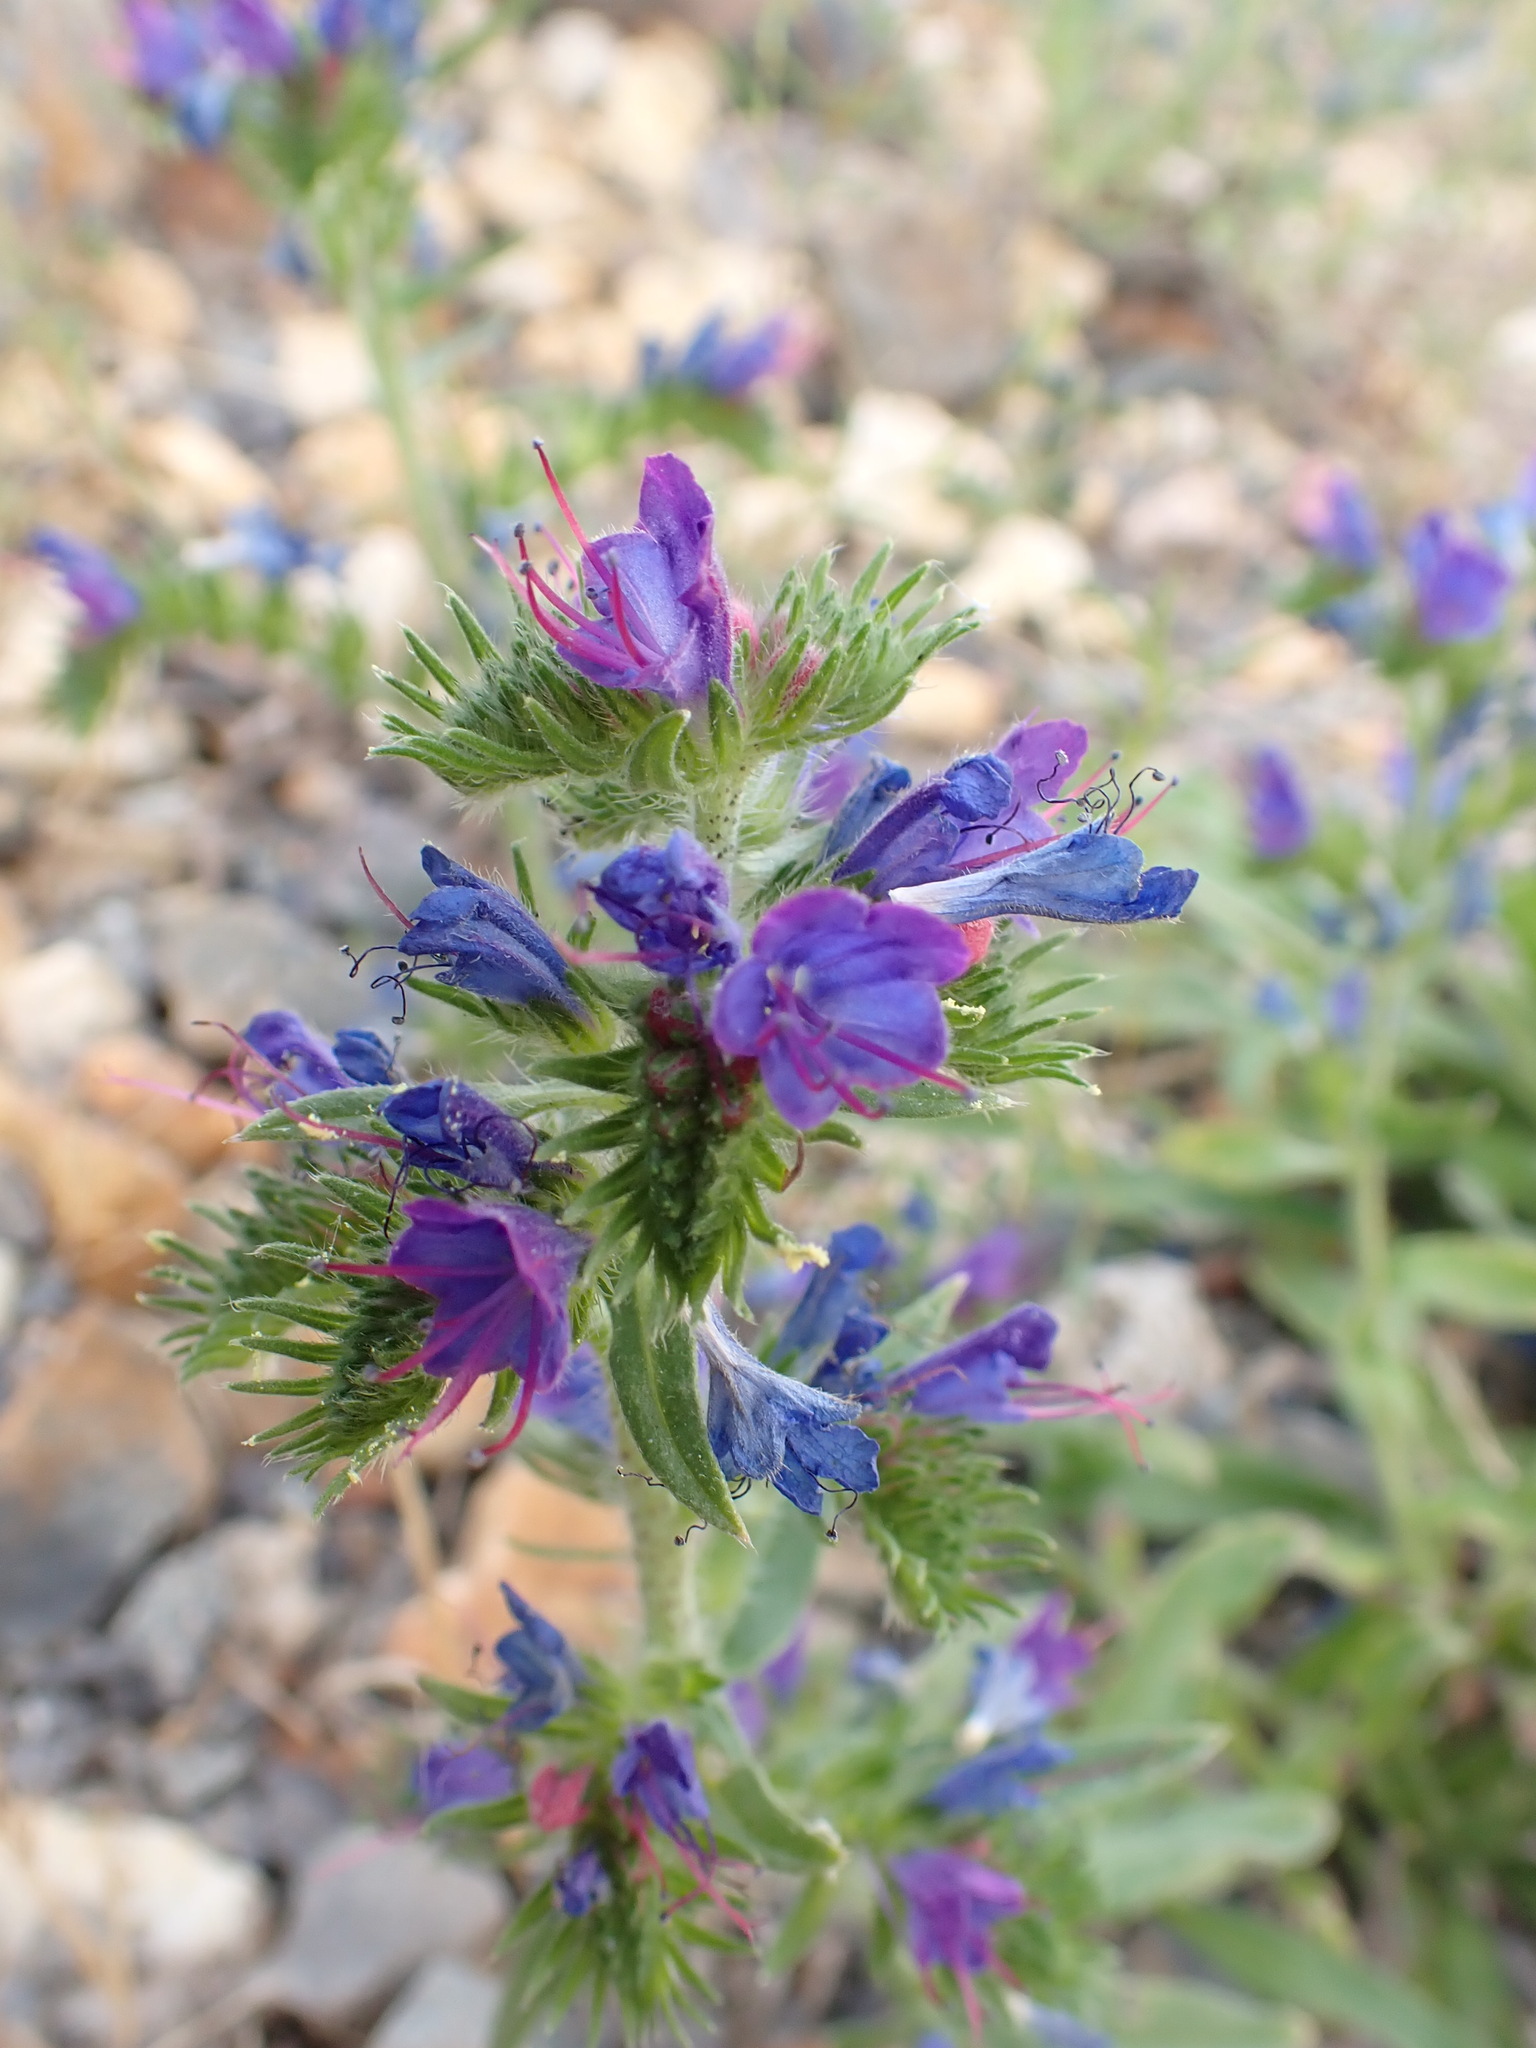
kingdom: Plantae
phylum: Tracheophyta
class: Magnoliopsida
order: Boraginales
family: Boraginaceae
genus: Echium
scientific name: Echium vulgare
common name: Common viper's bugloss
